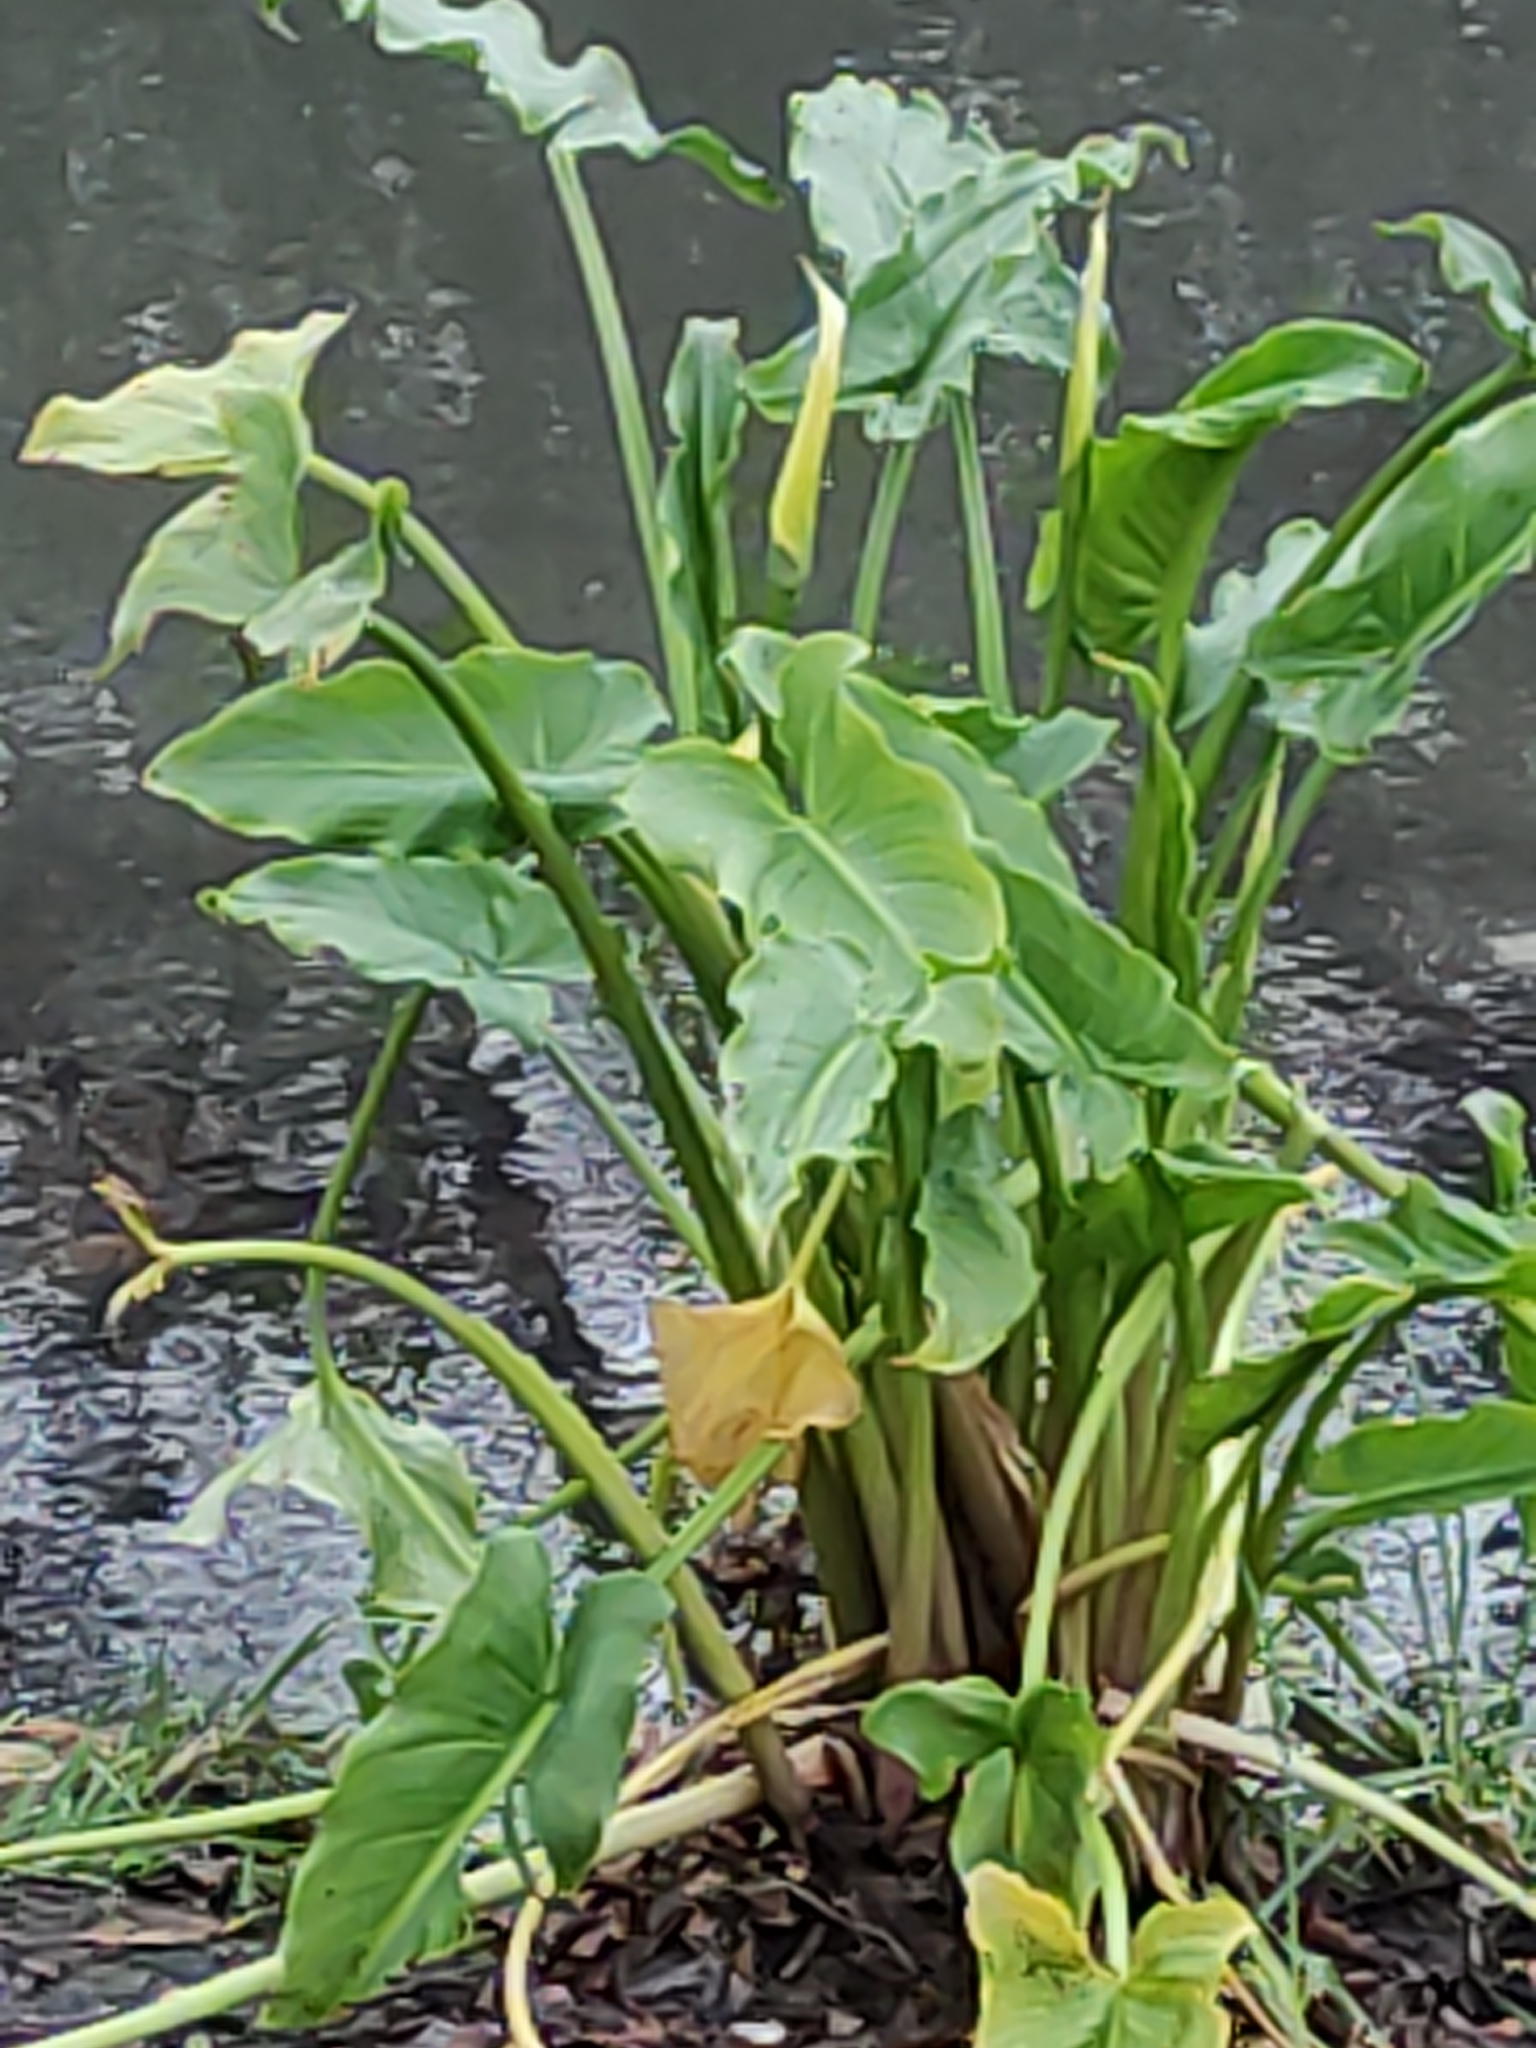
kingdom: Plantae
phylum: Tracheophyta
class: Liliopsida
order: Alismatales
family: Araceae
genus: Zantedeschia
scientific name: Zantedeschia aethiopica
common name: Altar-lily
